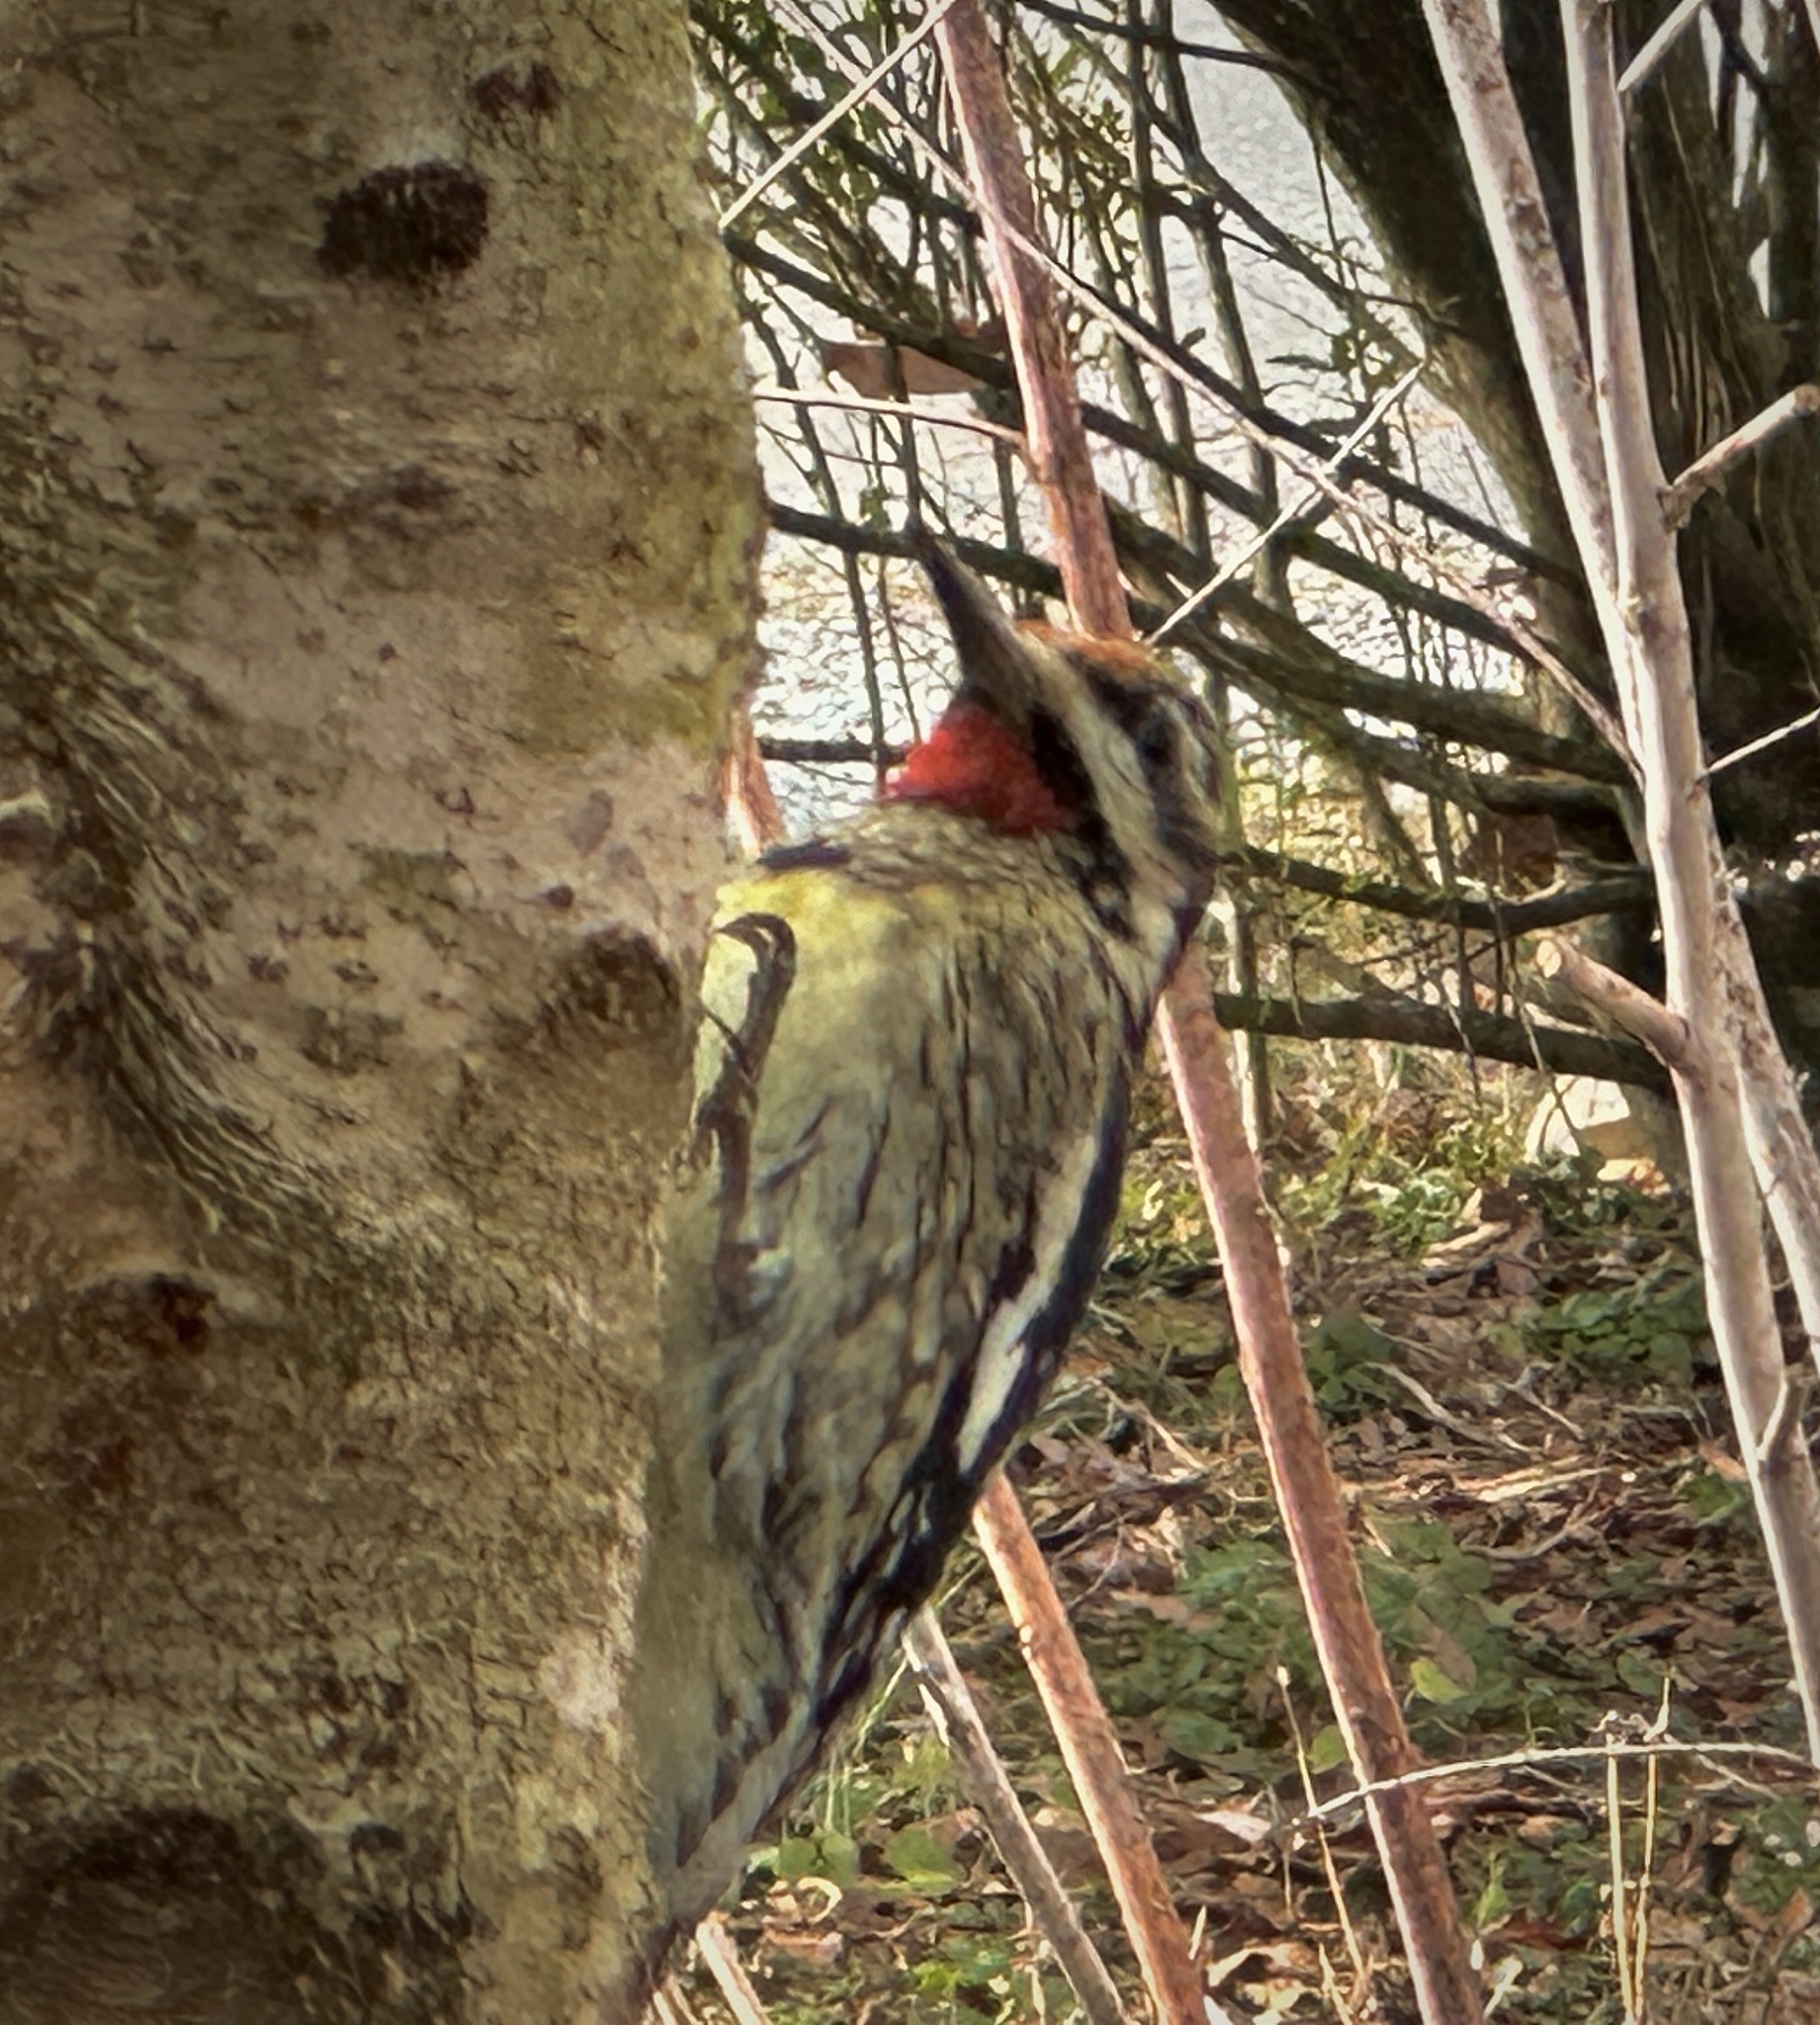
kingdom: Animalia
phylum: Chordata
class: Aves
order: Piciformes
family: Picidae
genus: Sphyrapicus
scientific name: Sphyrapicus varius
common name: Yellow-bellied sapsucker
